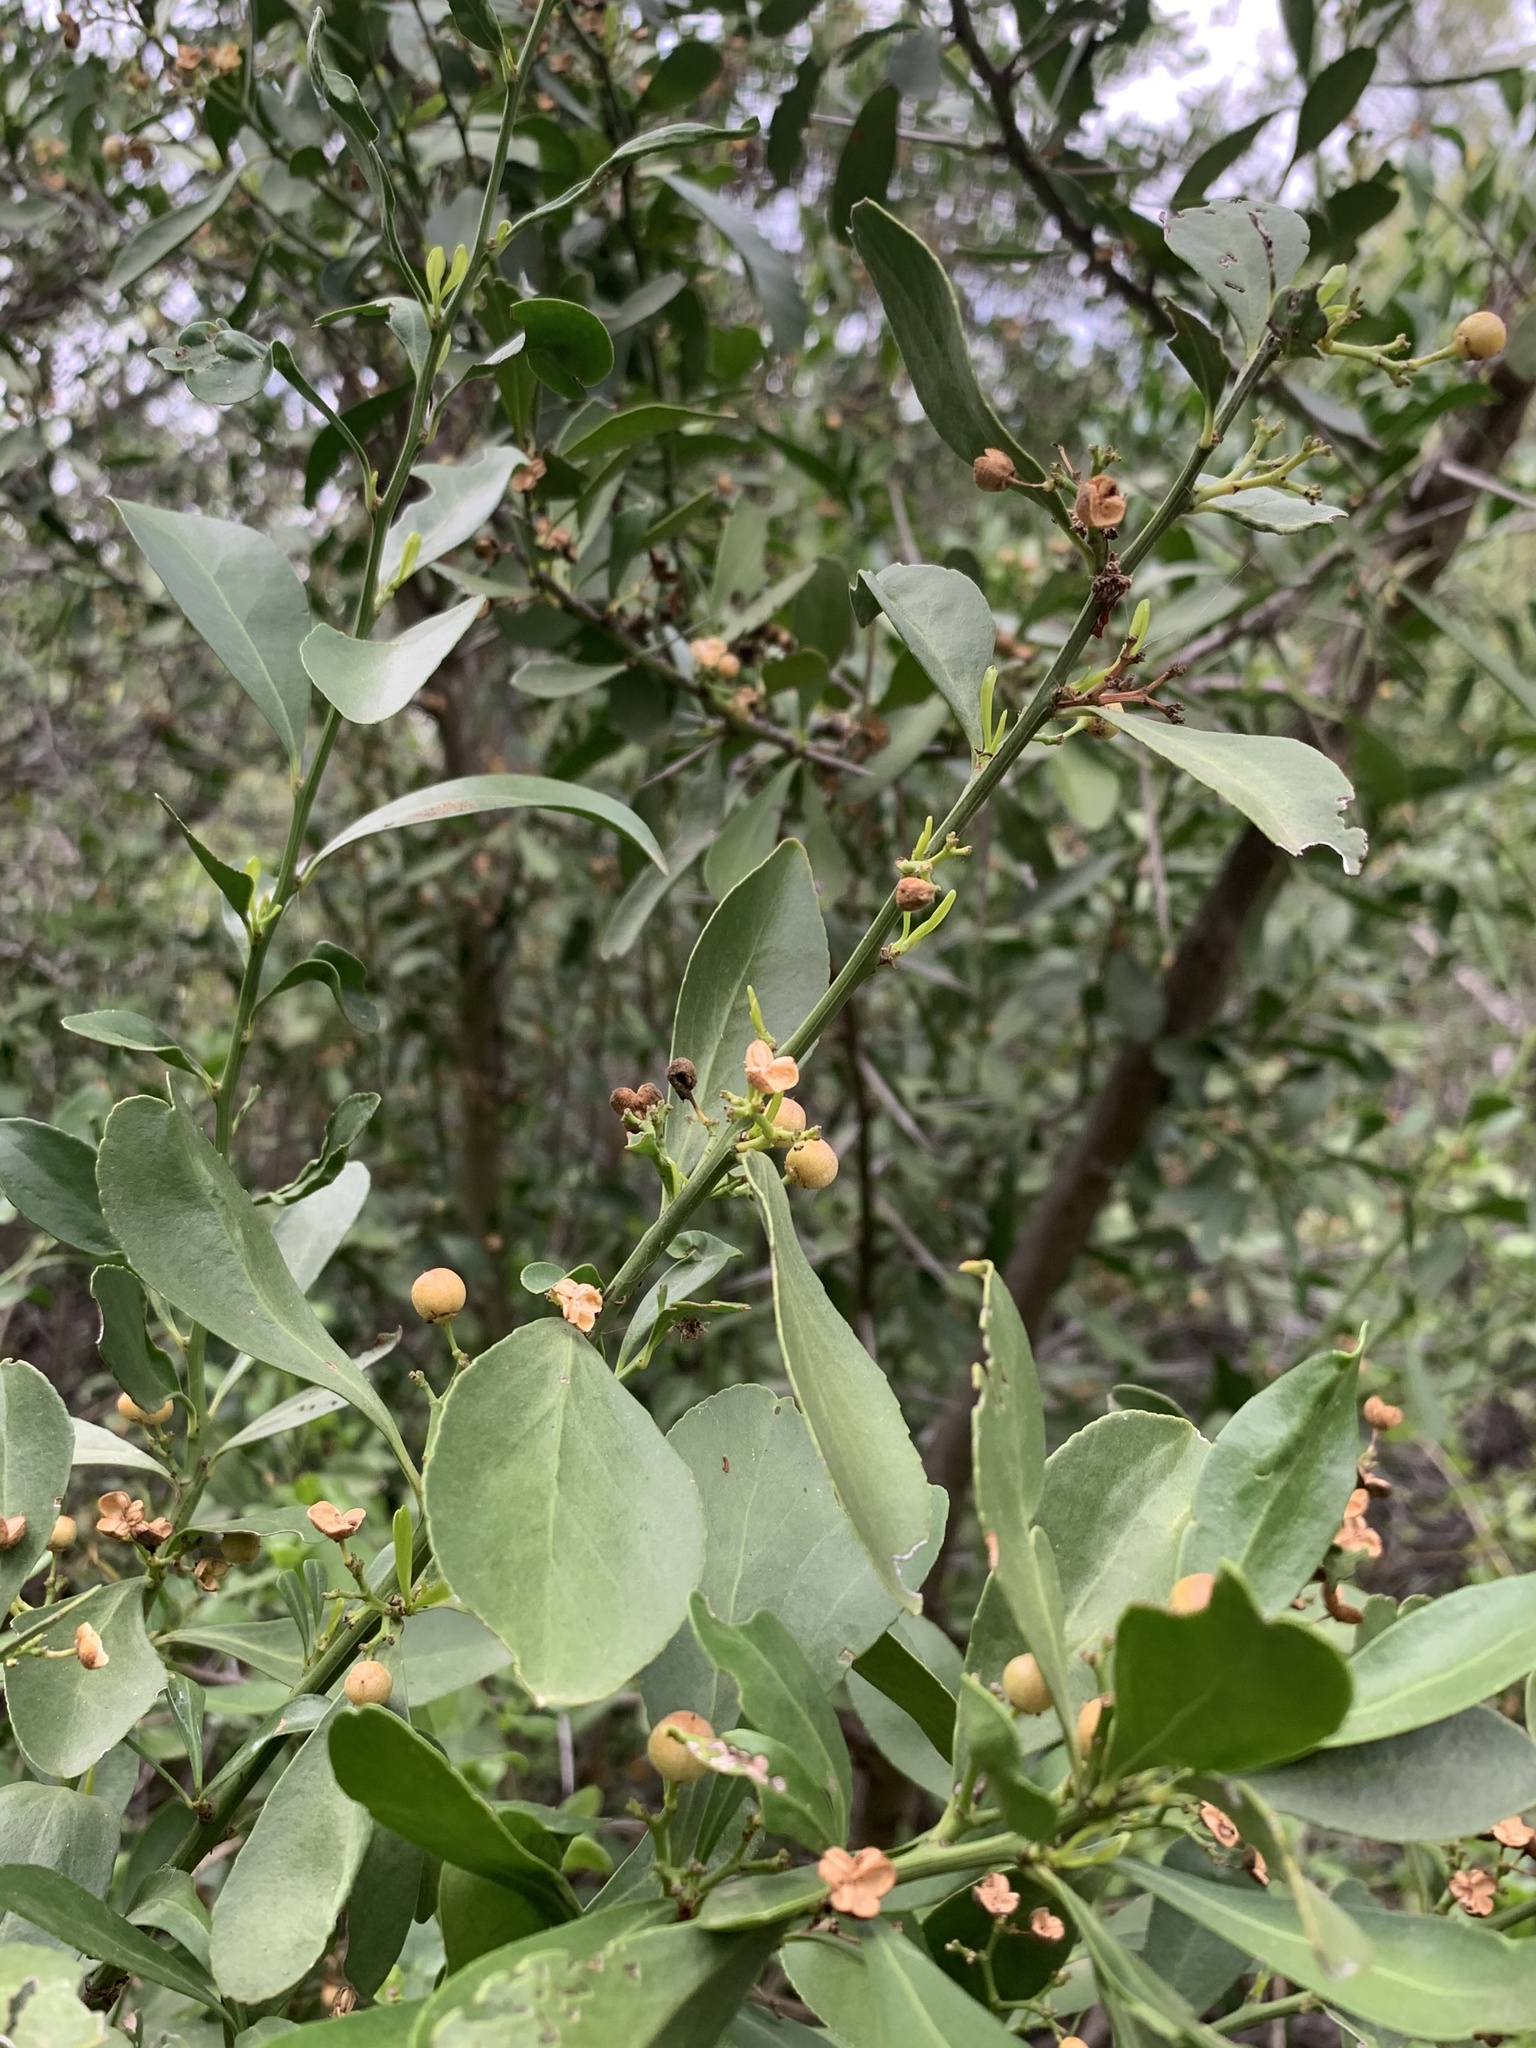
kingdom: Plantae
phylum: Tracheophyta
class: Magnoliopsida
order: Celastrales
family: Celastraceae
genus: Gymnosporia
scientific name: Gymnosporia buxifolia
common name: Common spike-thorn
